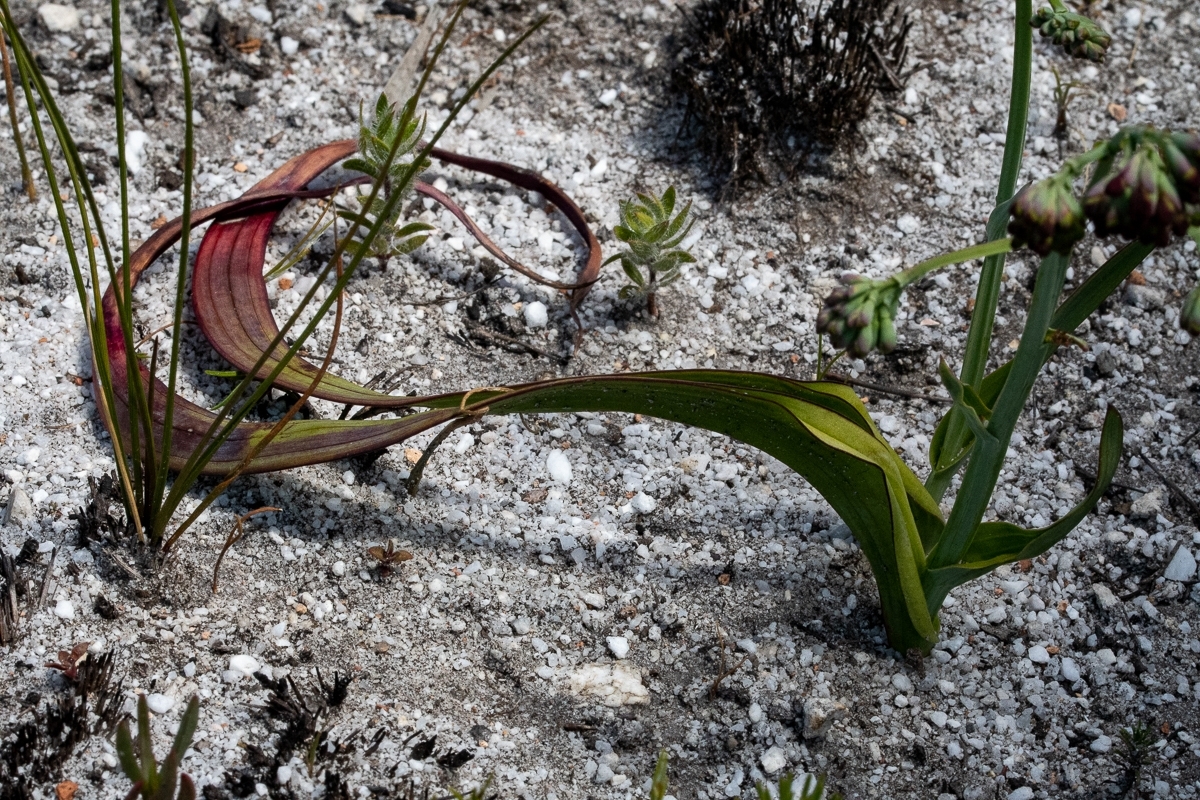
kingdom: Plantae
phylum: Tracheophyta
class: Liliopsida
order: Asparagales
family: Iridaceae
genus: Codonorhiza
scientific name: Codonorhiza micrantha
